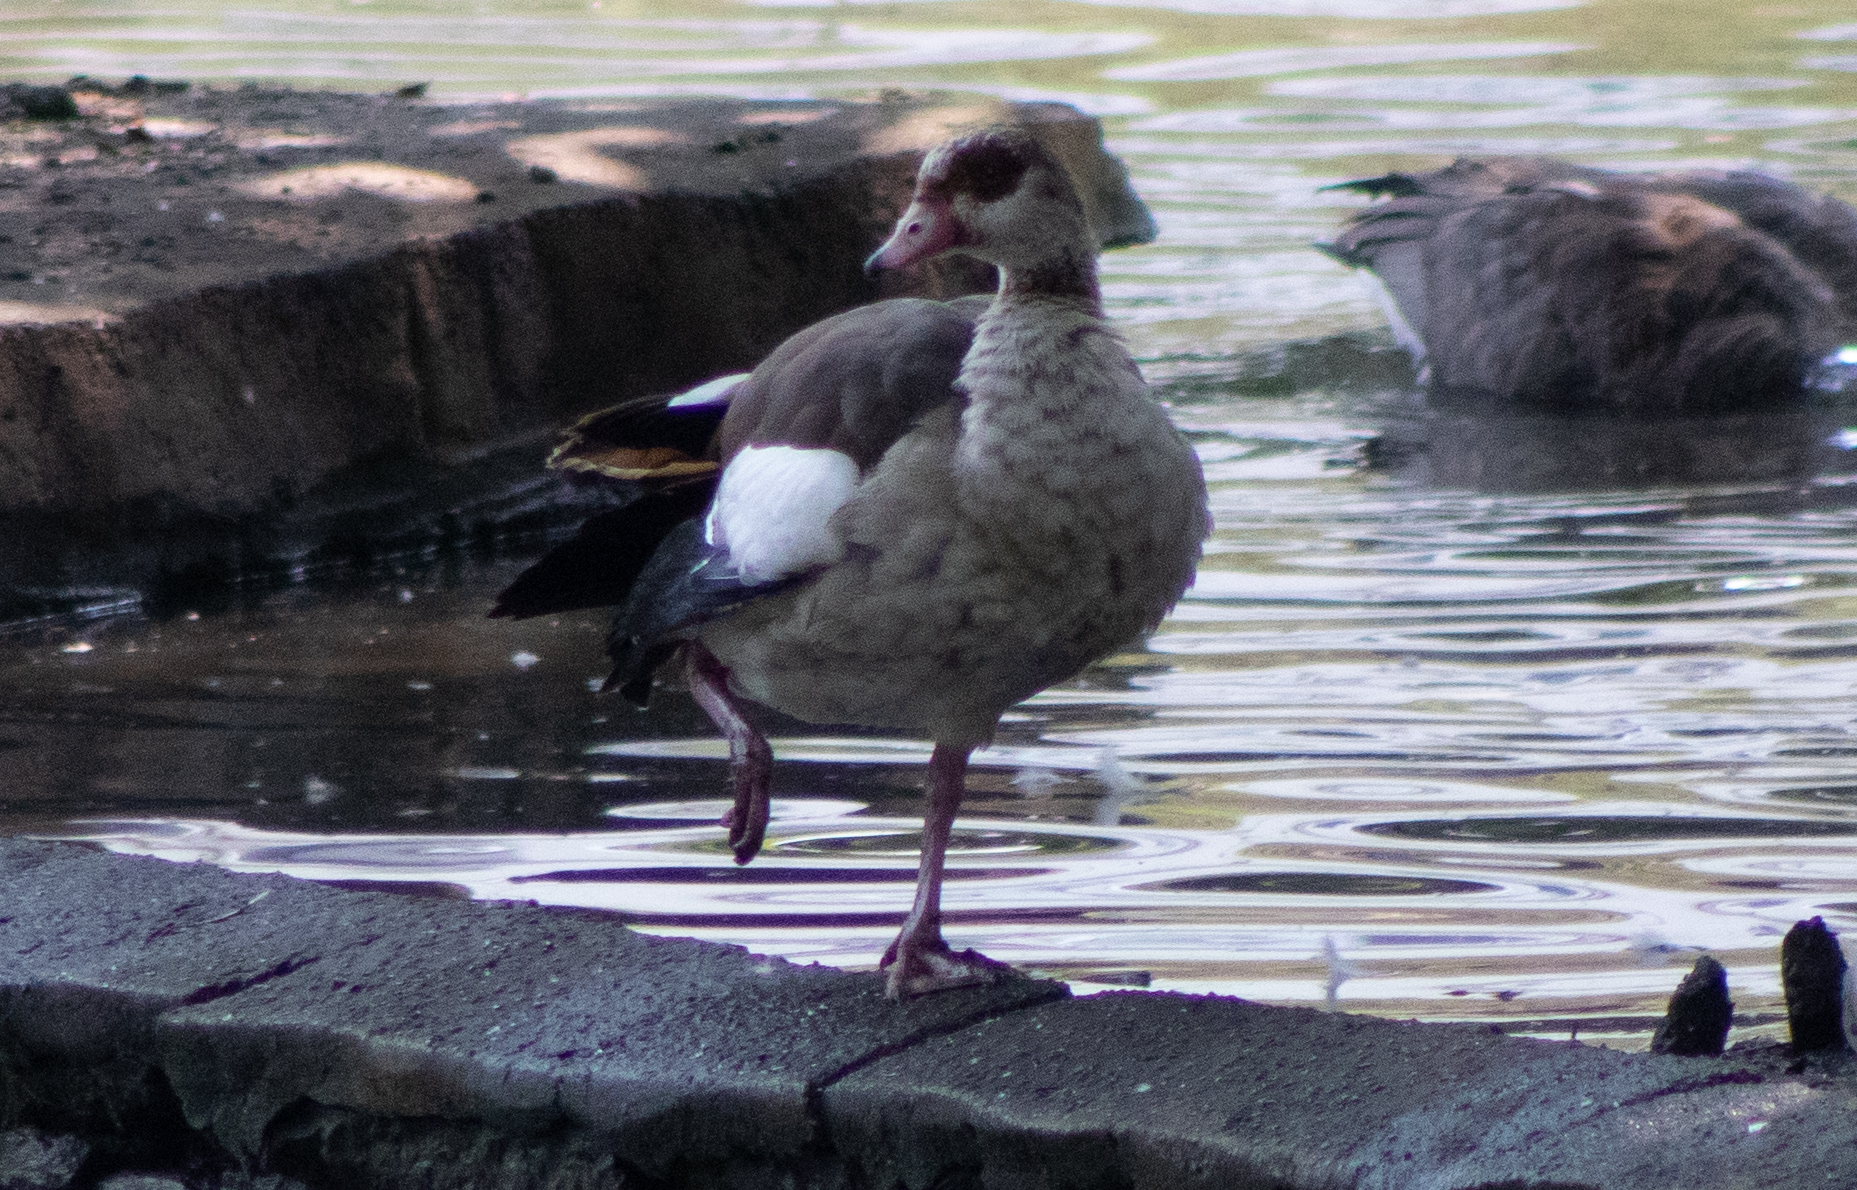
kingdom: Animalia
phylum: Chordata
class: Aves
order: Anseriformes
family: Anatidae
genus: Alopochen
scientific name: Alopochen aegyptiaca
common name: Egyptian goose
